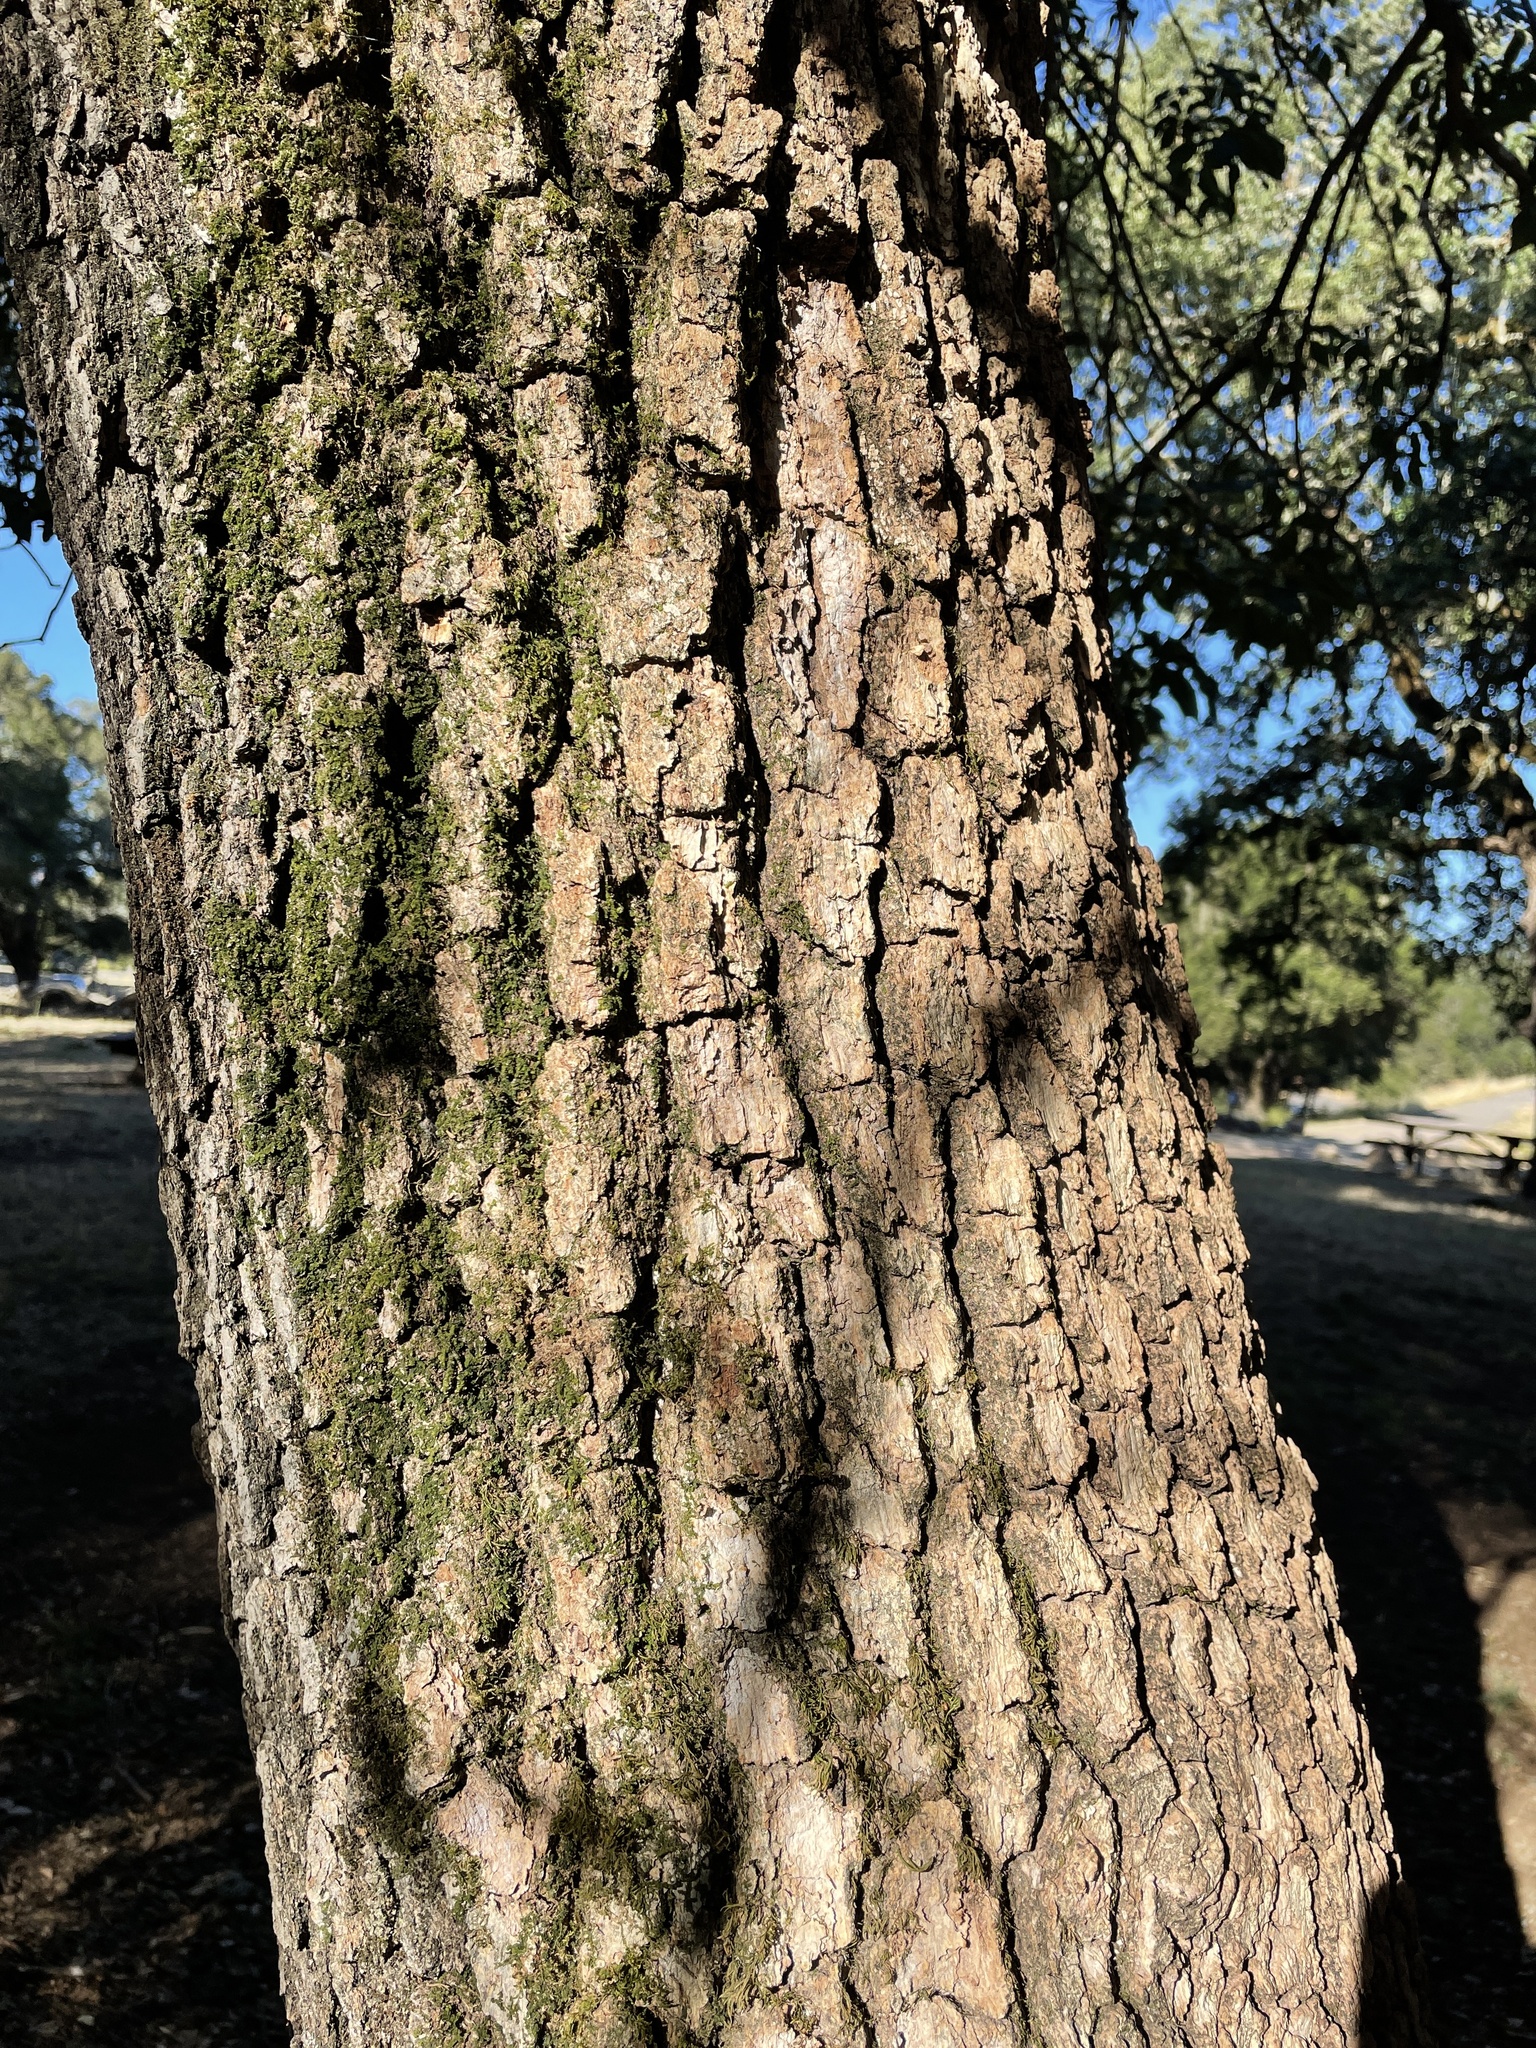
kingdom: Plantae
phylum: Tracheophyta
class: Magnoliopsida
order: Sapindales
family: Sapindaceae
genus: Aesculus
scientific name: Aesculus californica
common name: California buckeye
